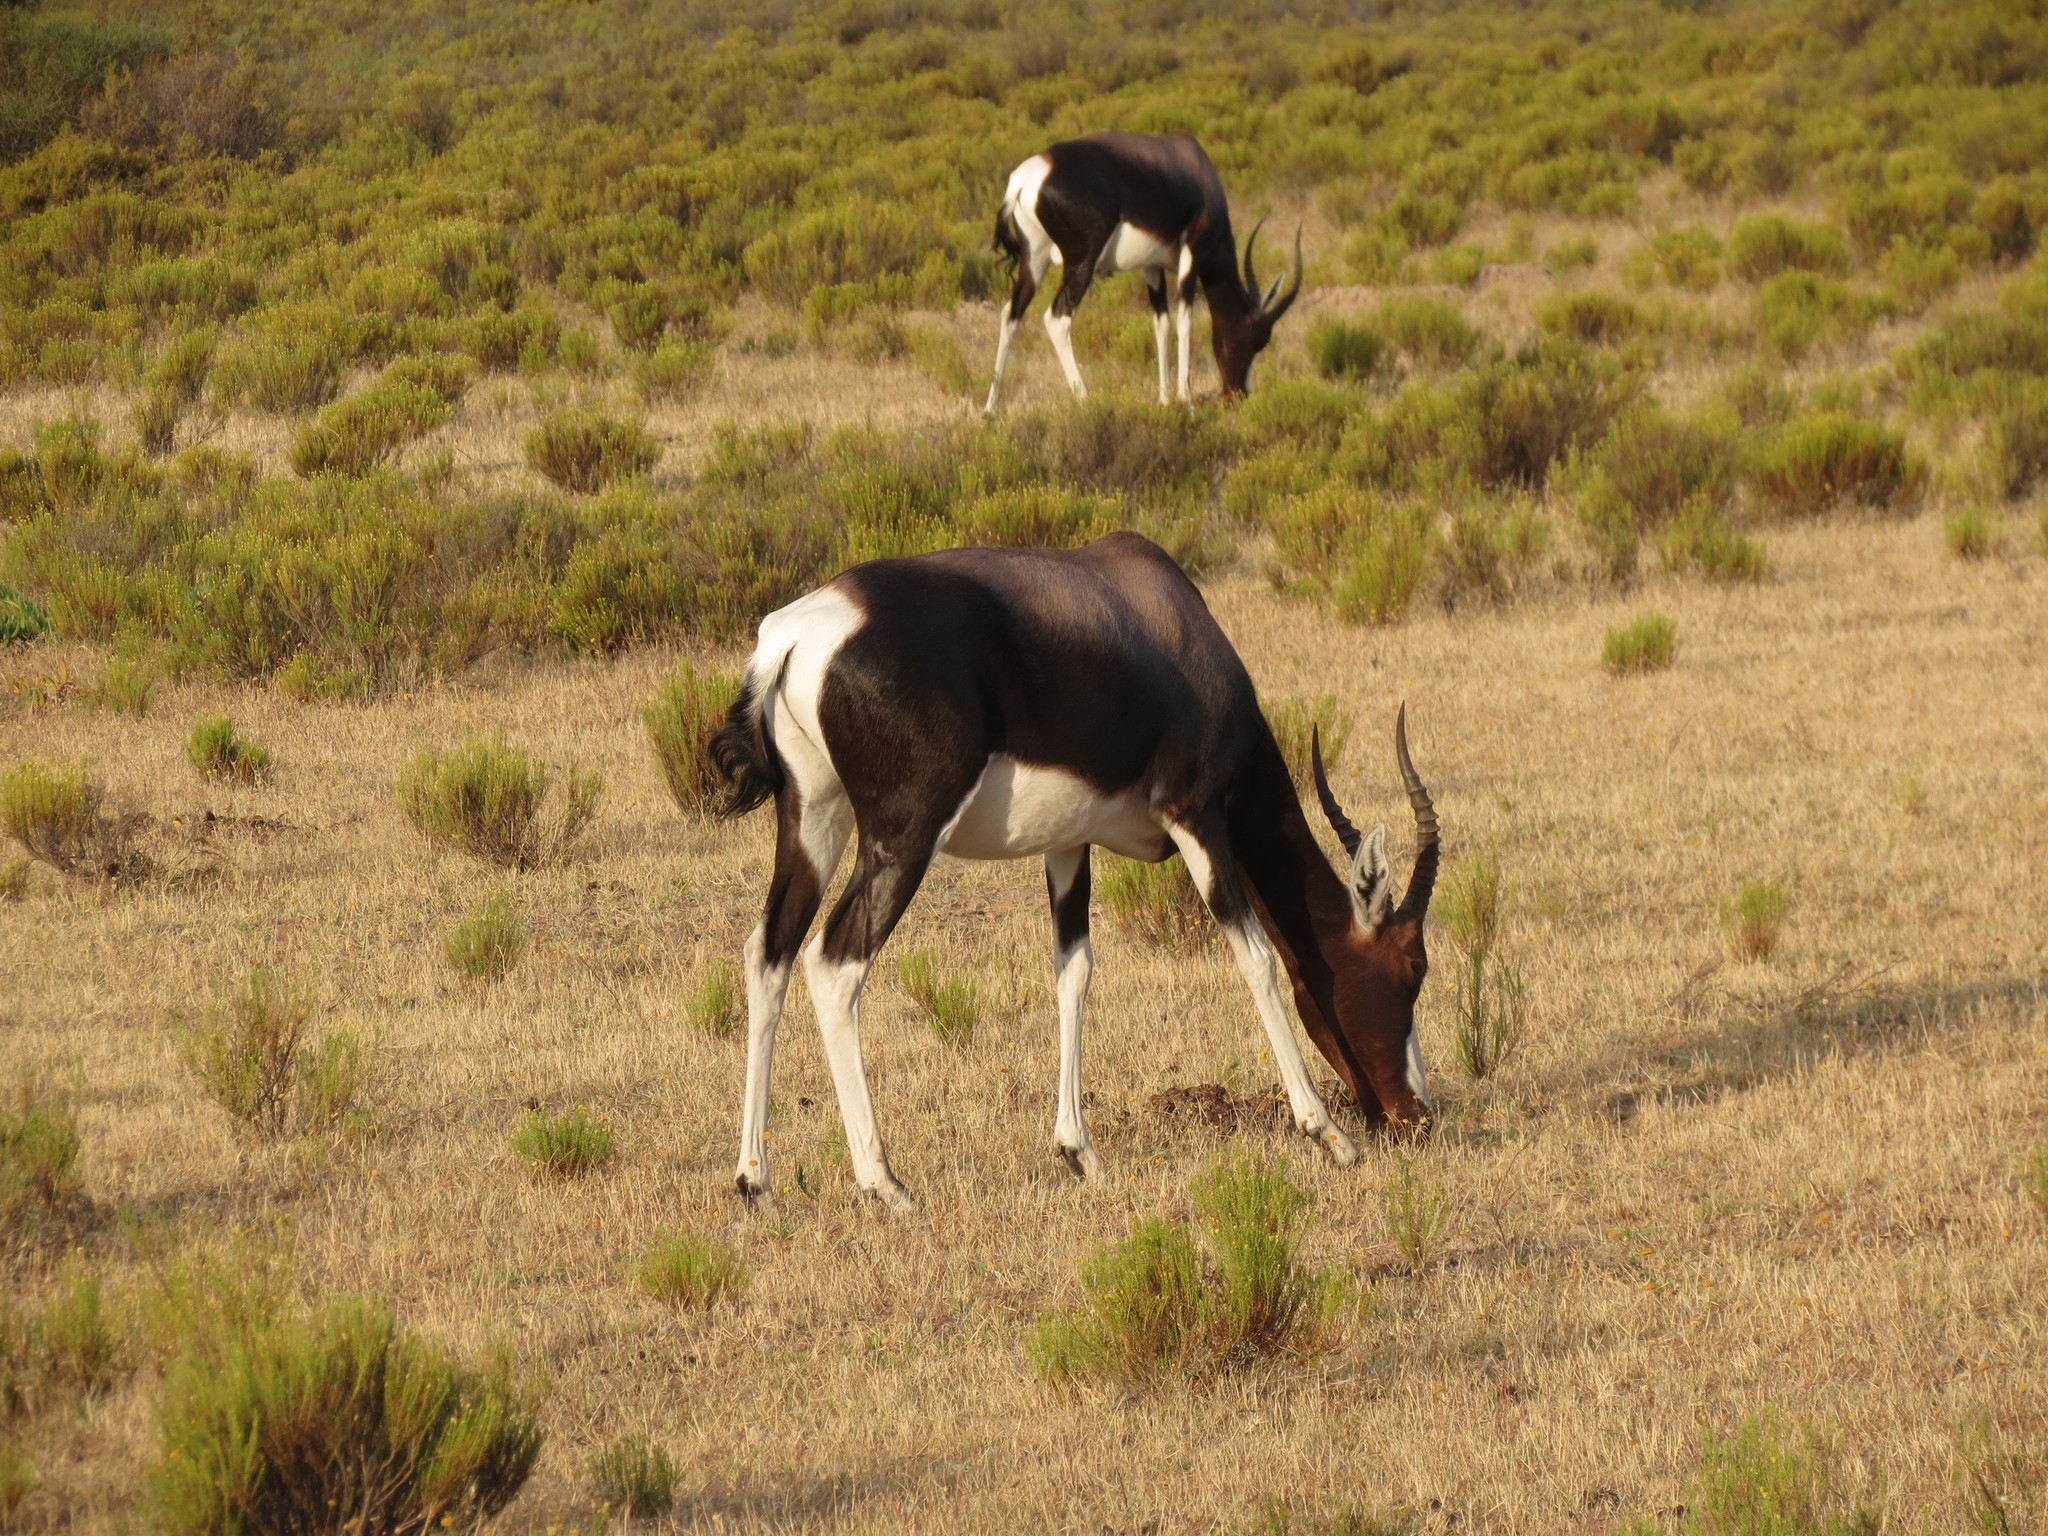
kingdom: Animalia
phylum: Chordata
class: Mammalia
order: Artiodactyla
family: Bovidae
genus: Damaliscus
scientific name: Damaliscus pygargus
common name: Bontebok
